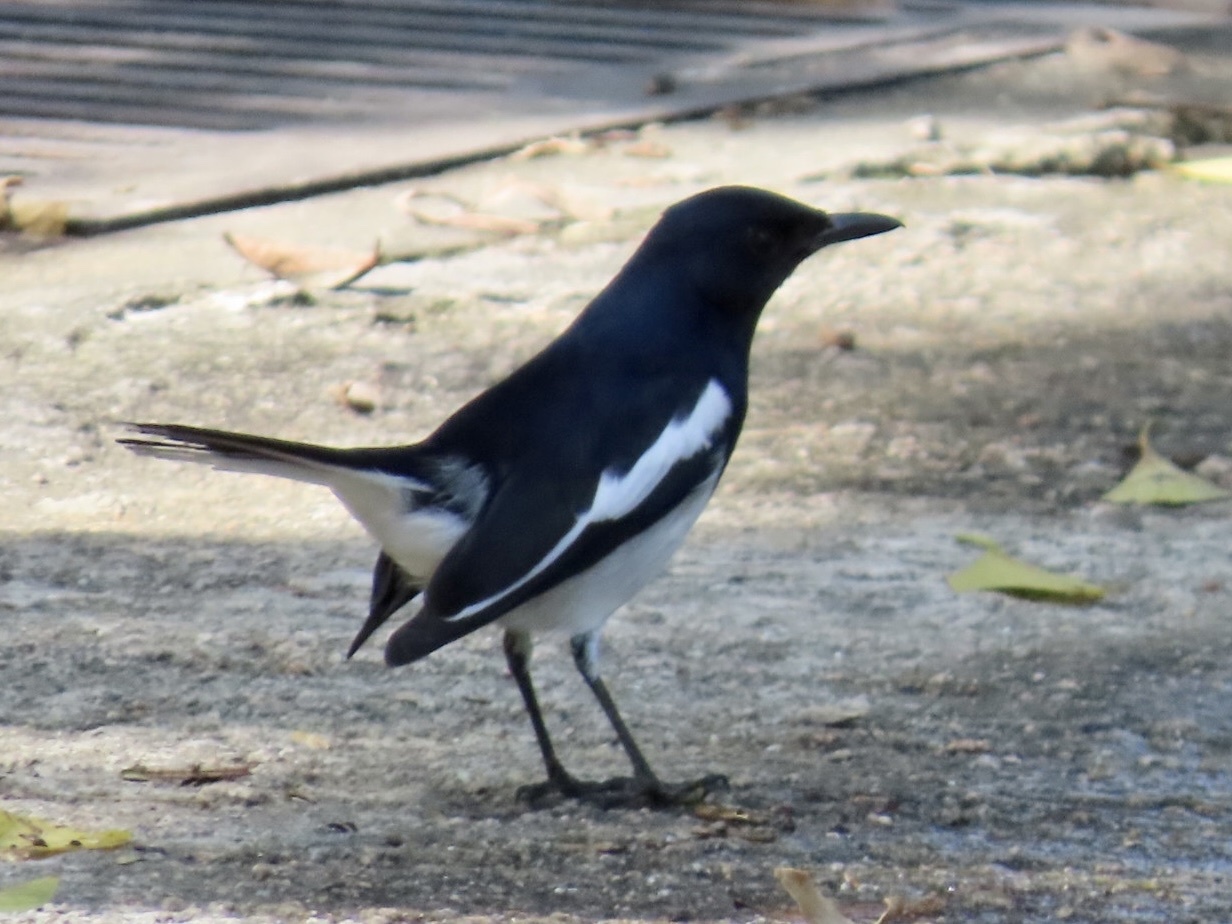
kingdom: Animalia
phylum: Chordata
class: Aves
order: Passeriformes
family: Muscicapidae
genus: Copsychus
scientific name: Copsychus saularis
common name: Oriental magpie-robin
